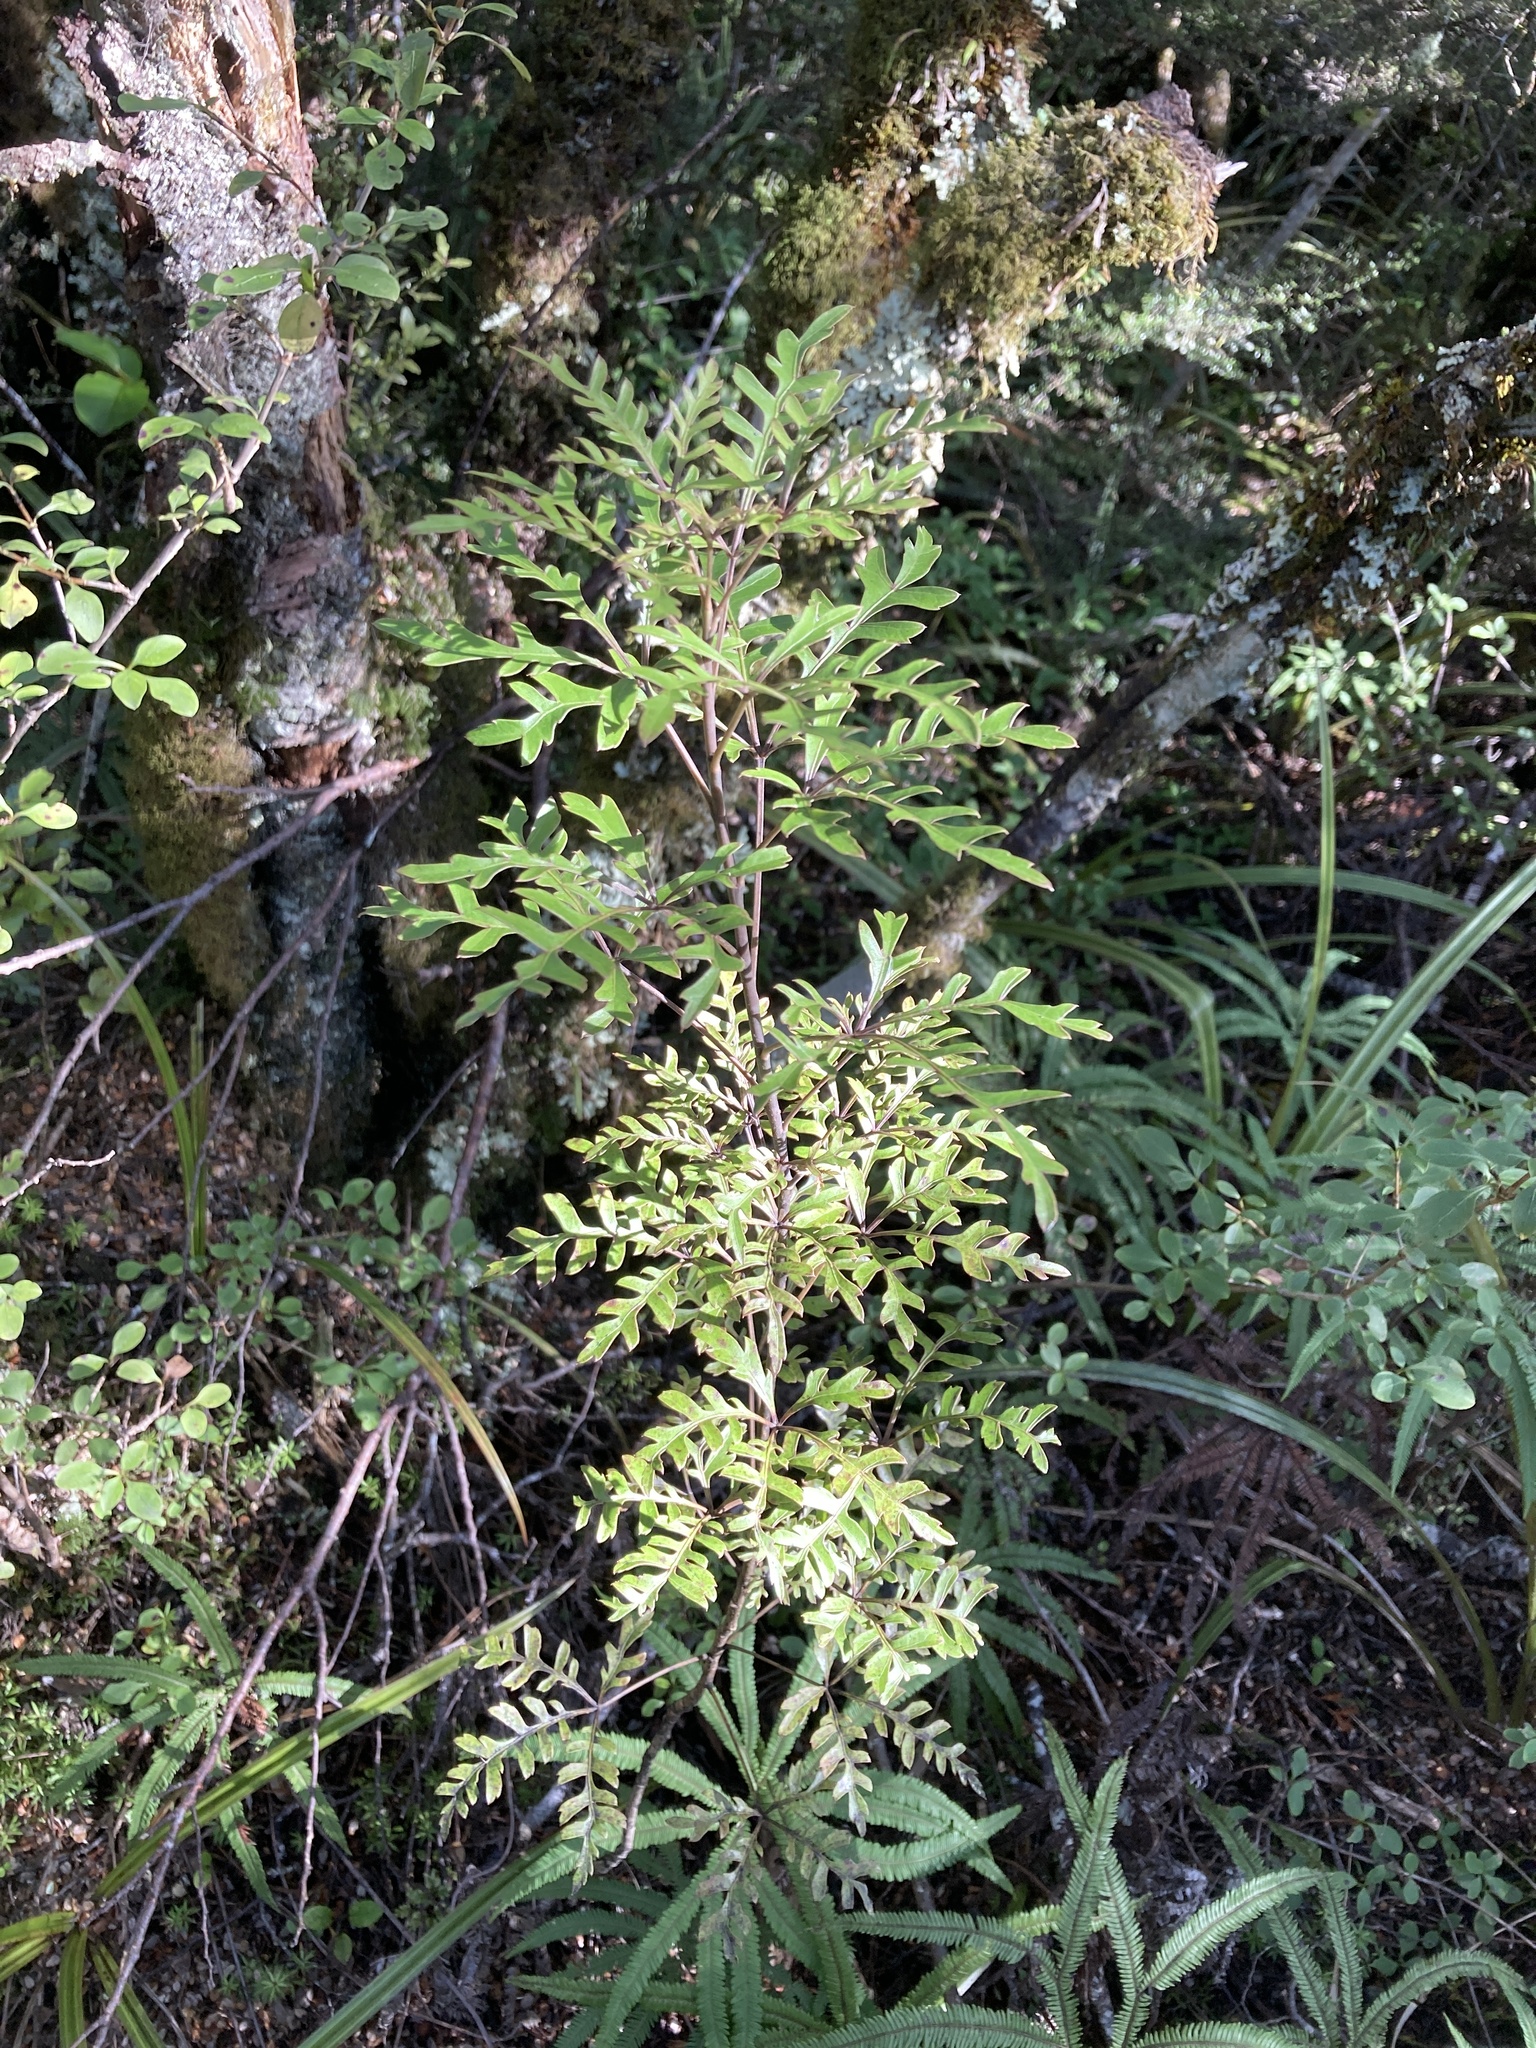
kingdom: Plantae
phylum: Tracheophyta
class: Magnoliopsida
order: Apiales
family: Araliaceae
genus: Raukaua
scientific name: Raukaua simplex
